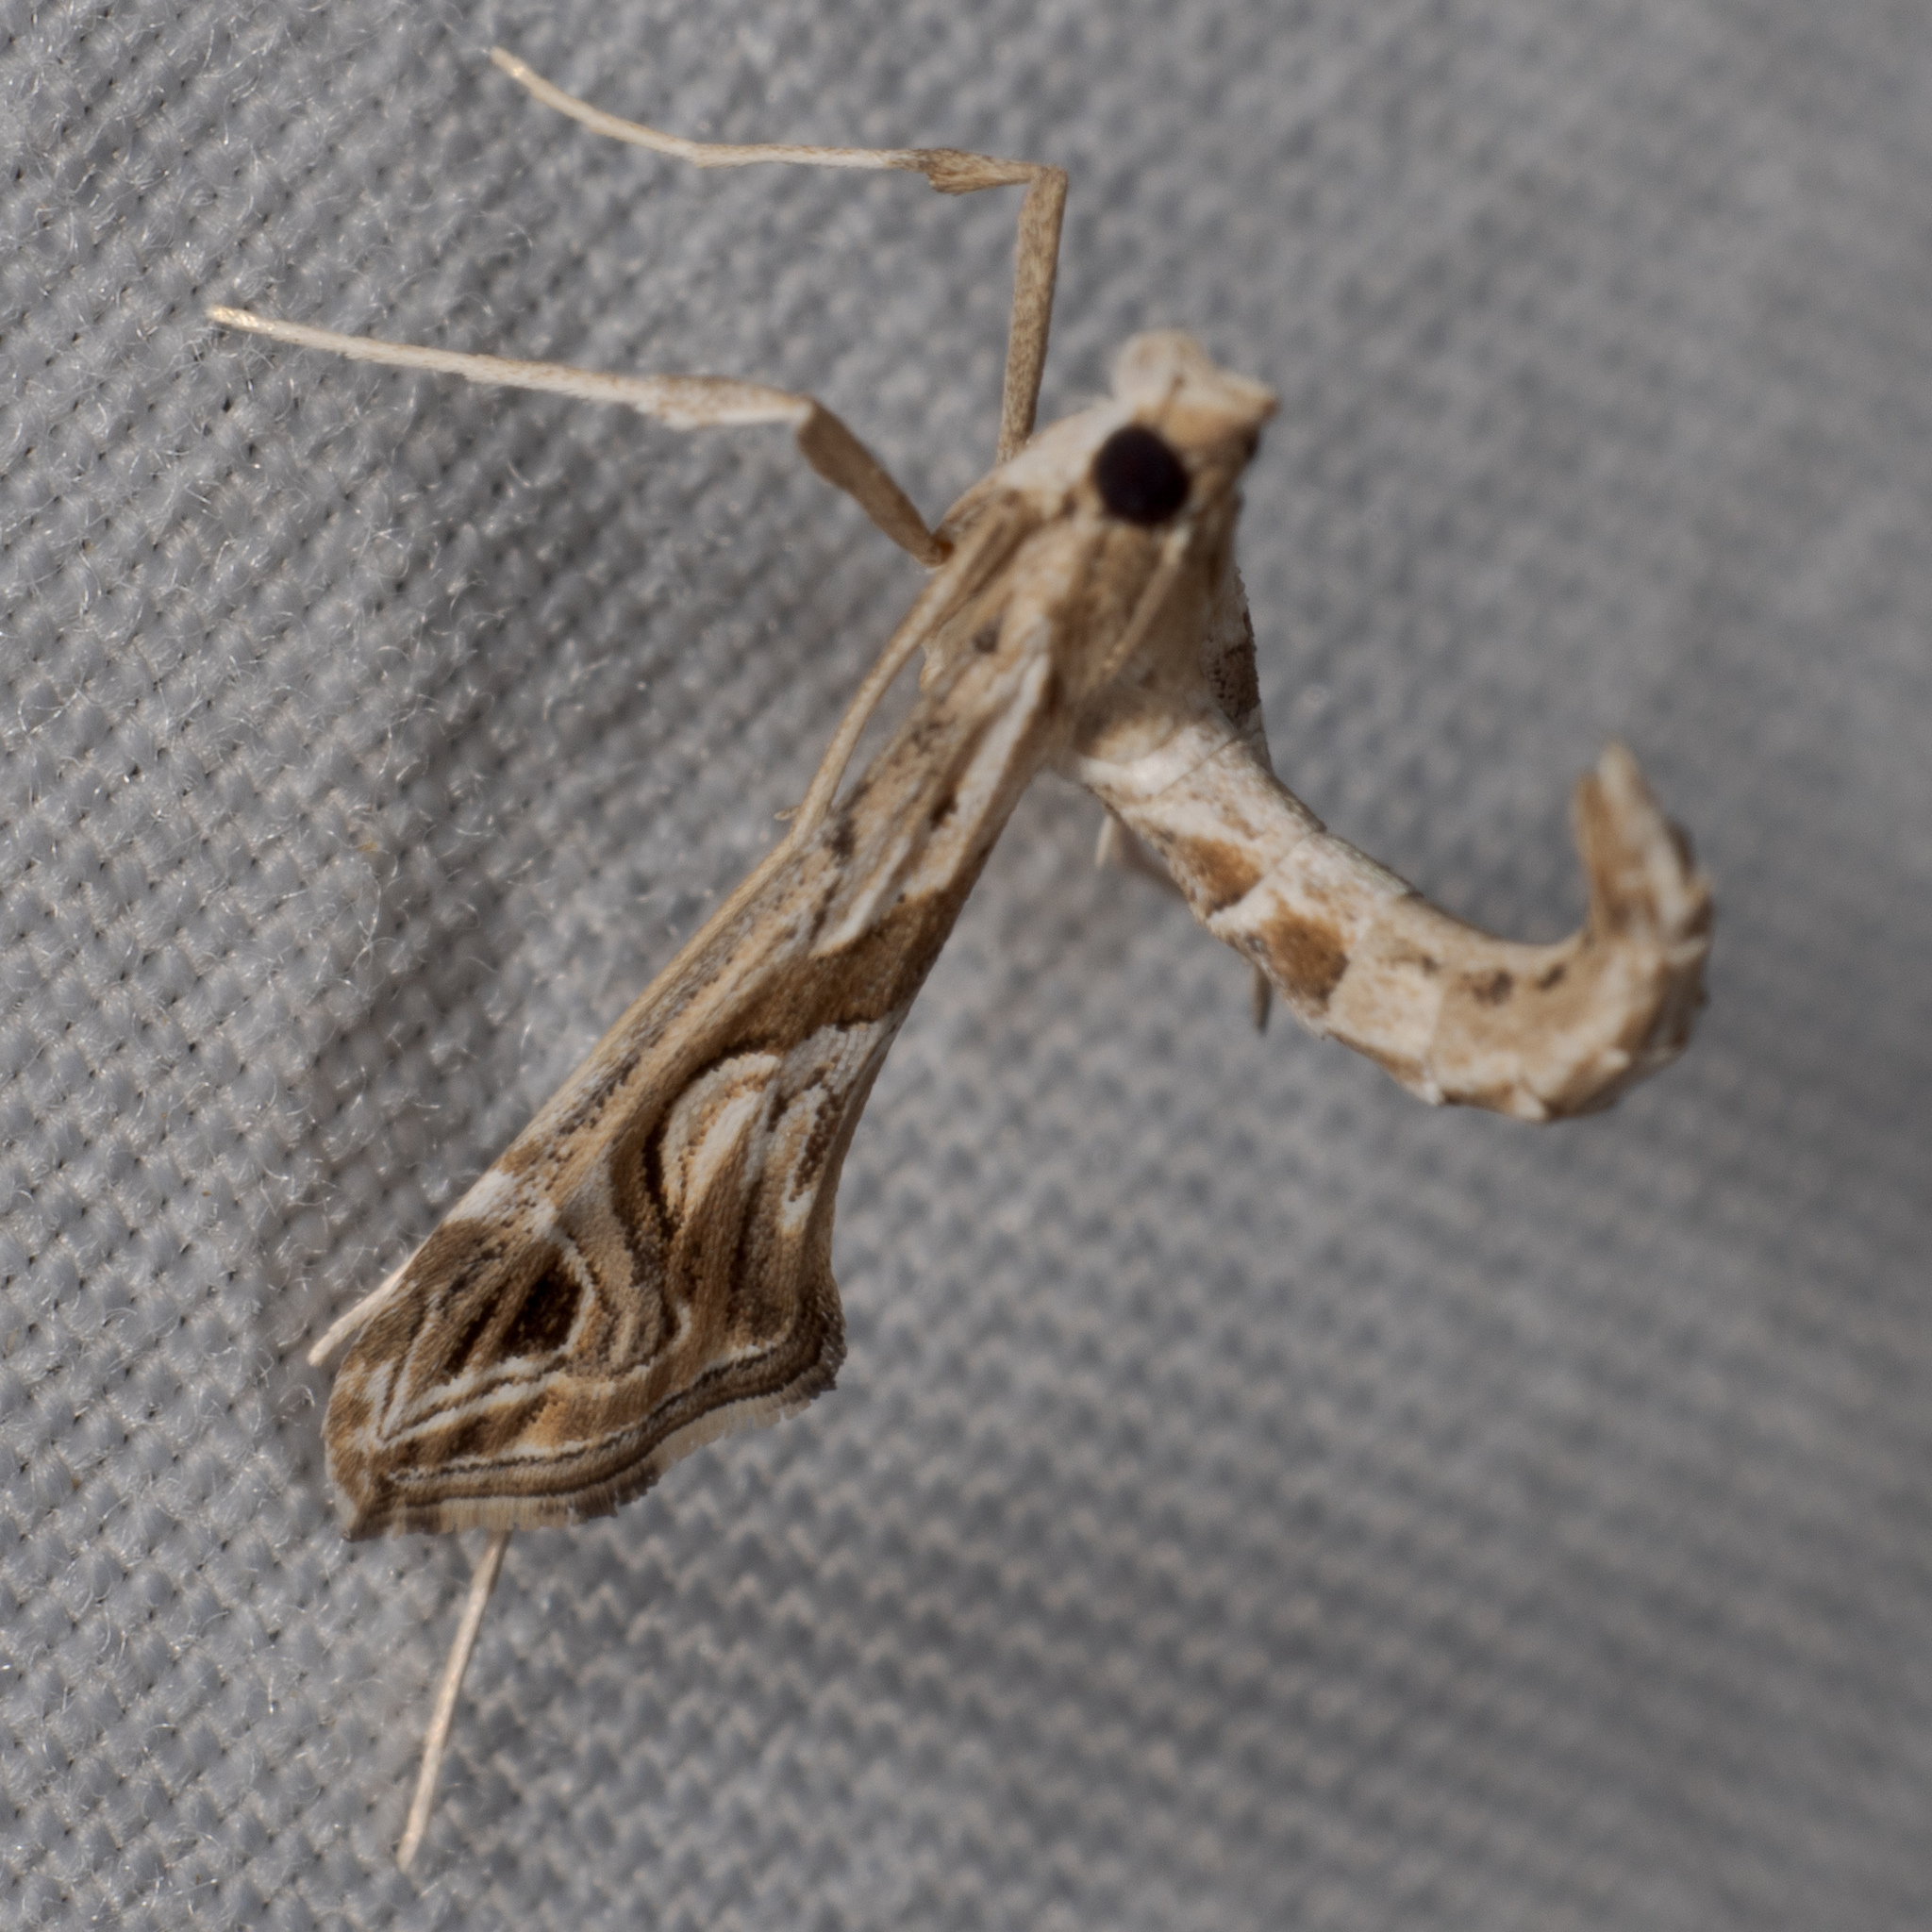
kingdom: Animalia
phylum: Arthropoda
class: Insecta
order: Lepidoptera
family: Crambidae
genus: Lineodes
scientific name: Lineodes integra
